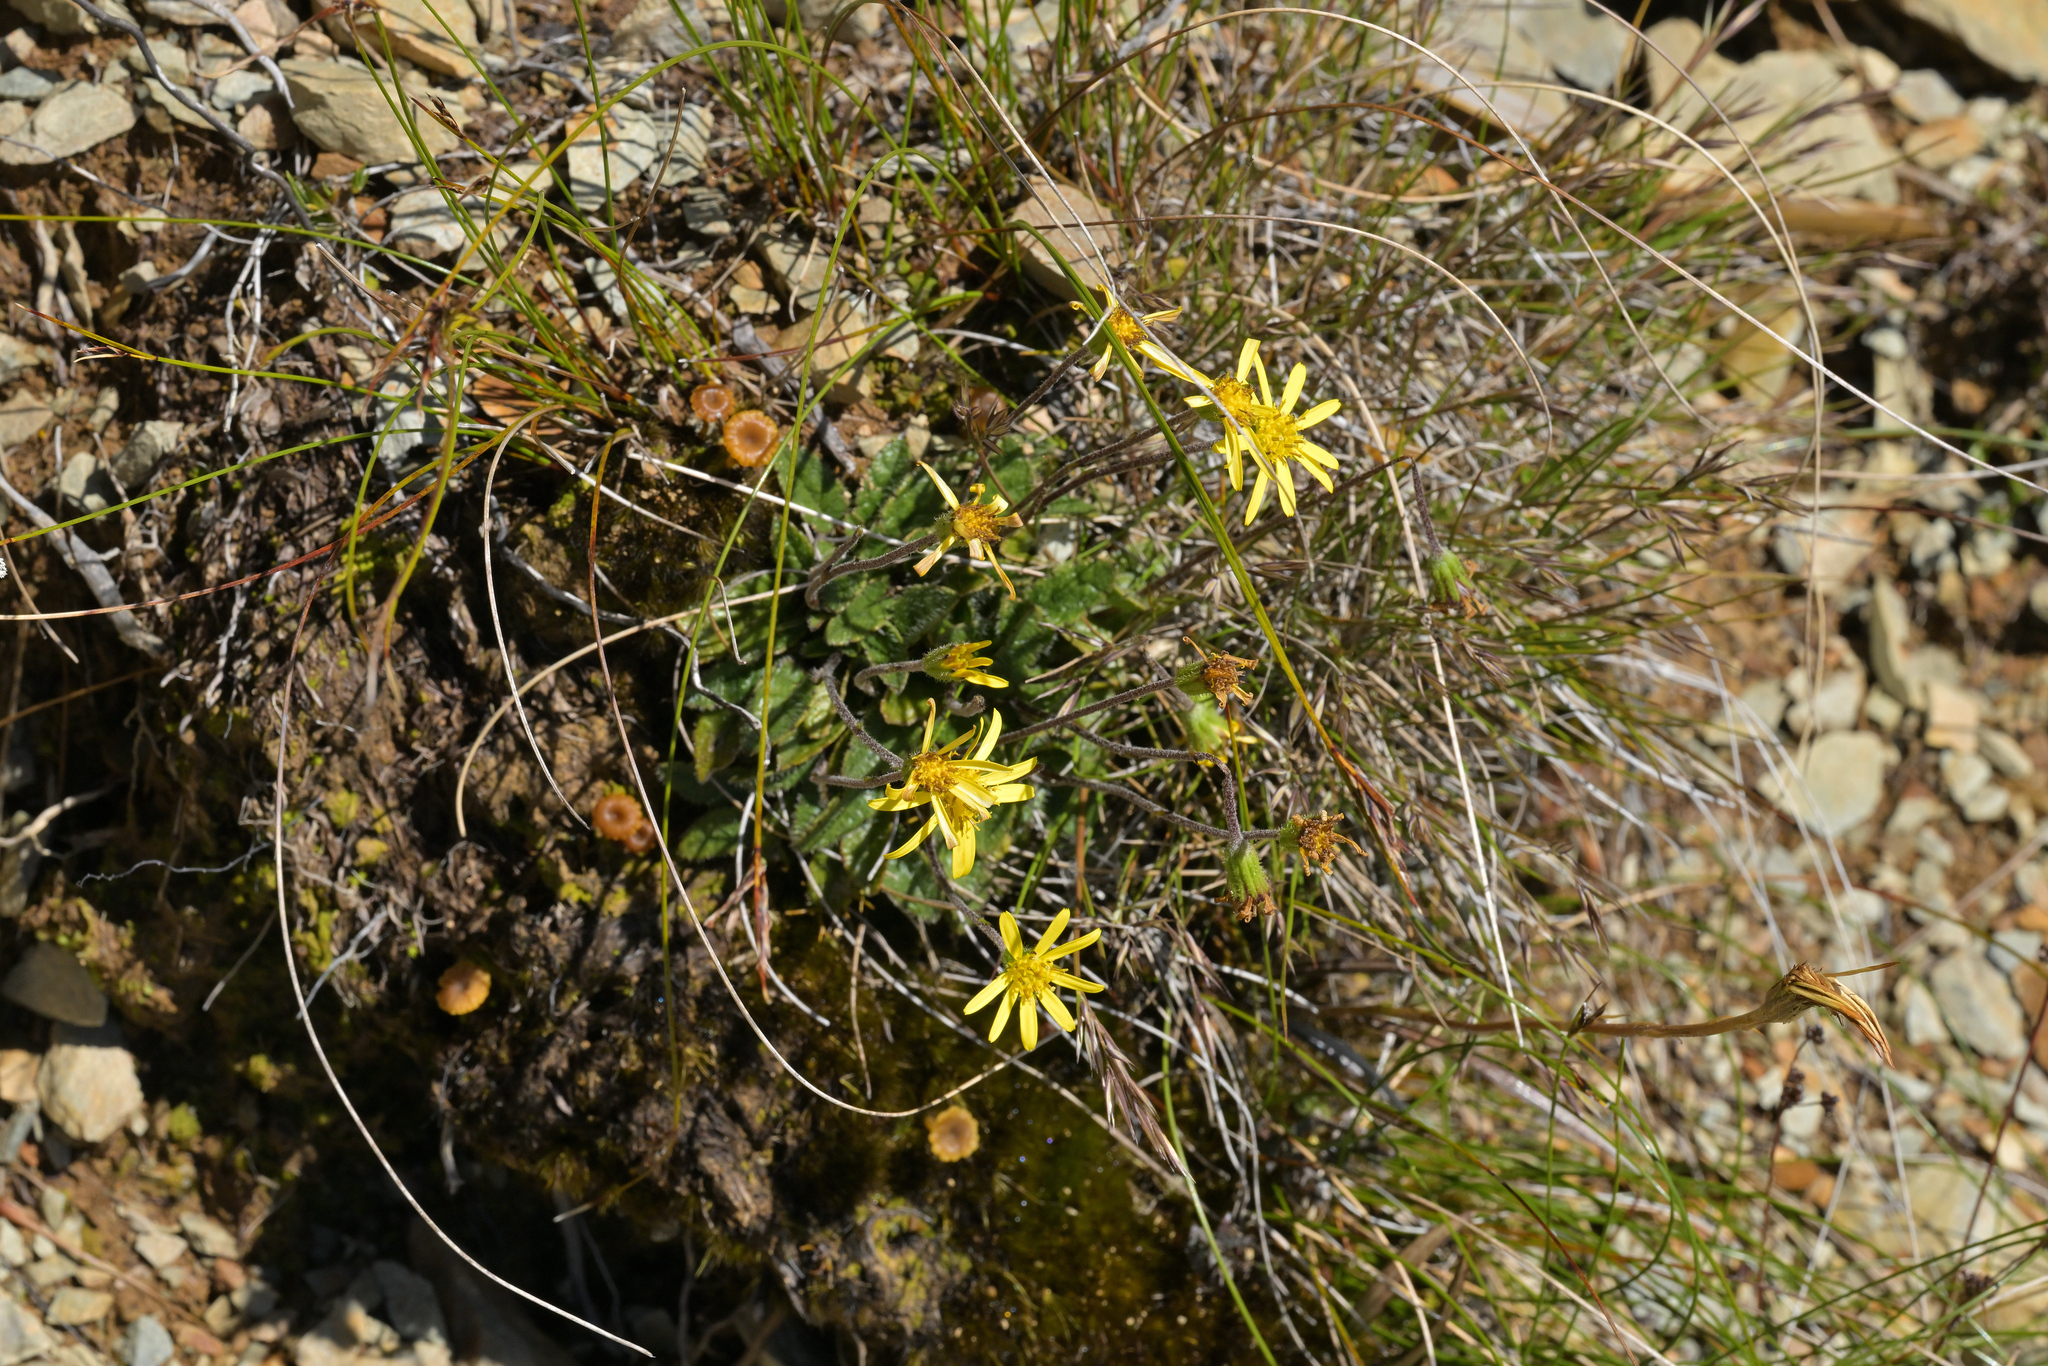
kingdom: Plantae
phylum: Tracheophyta
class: Magnoliopsida
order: Asterales
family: Asteraceae
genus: Brachyglottis
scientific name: Brachyglottis bellidioides
